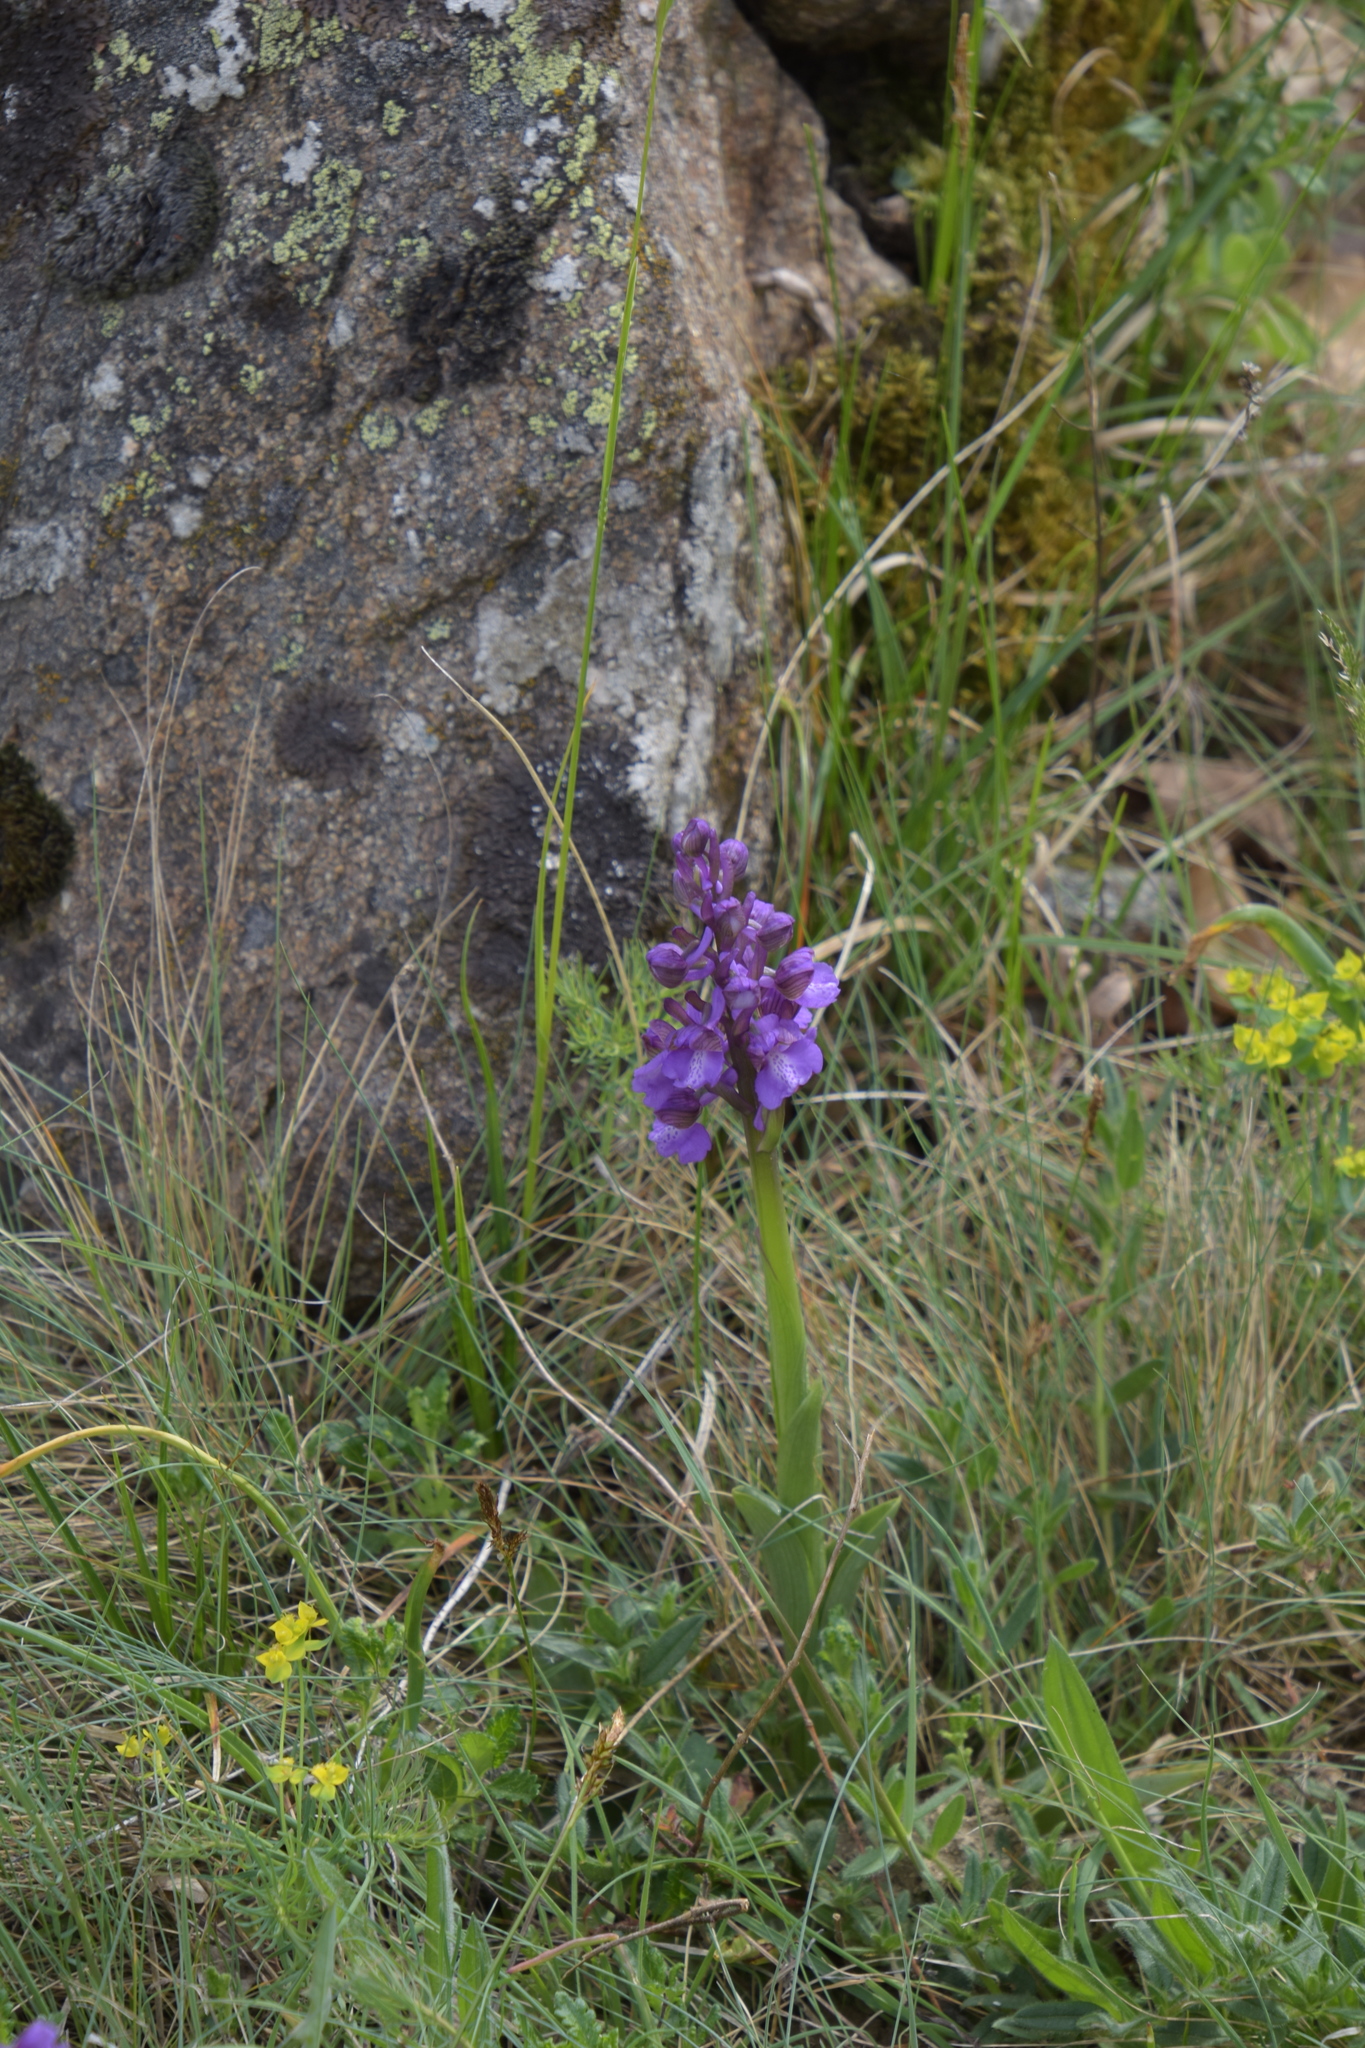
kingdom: Plantae
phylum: Tracheophyta
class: Liliopsida
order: Asparagales
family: Orchidaceae
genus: Anacamptis
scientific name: Anacamptis morio
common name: Green-winged orchid
